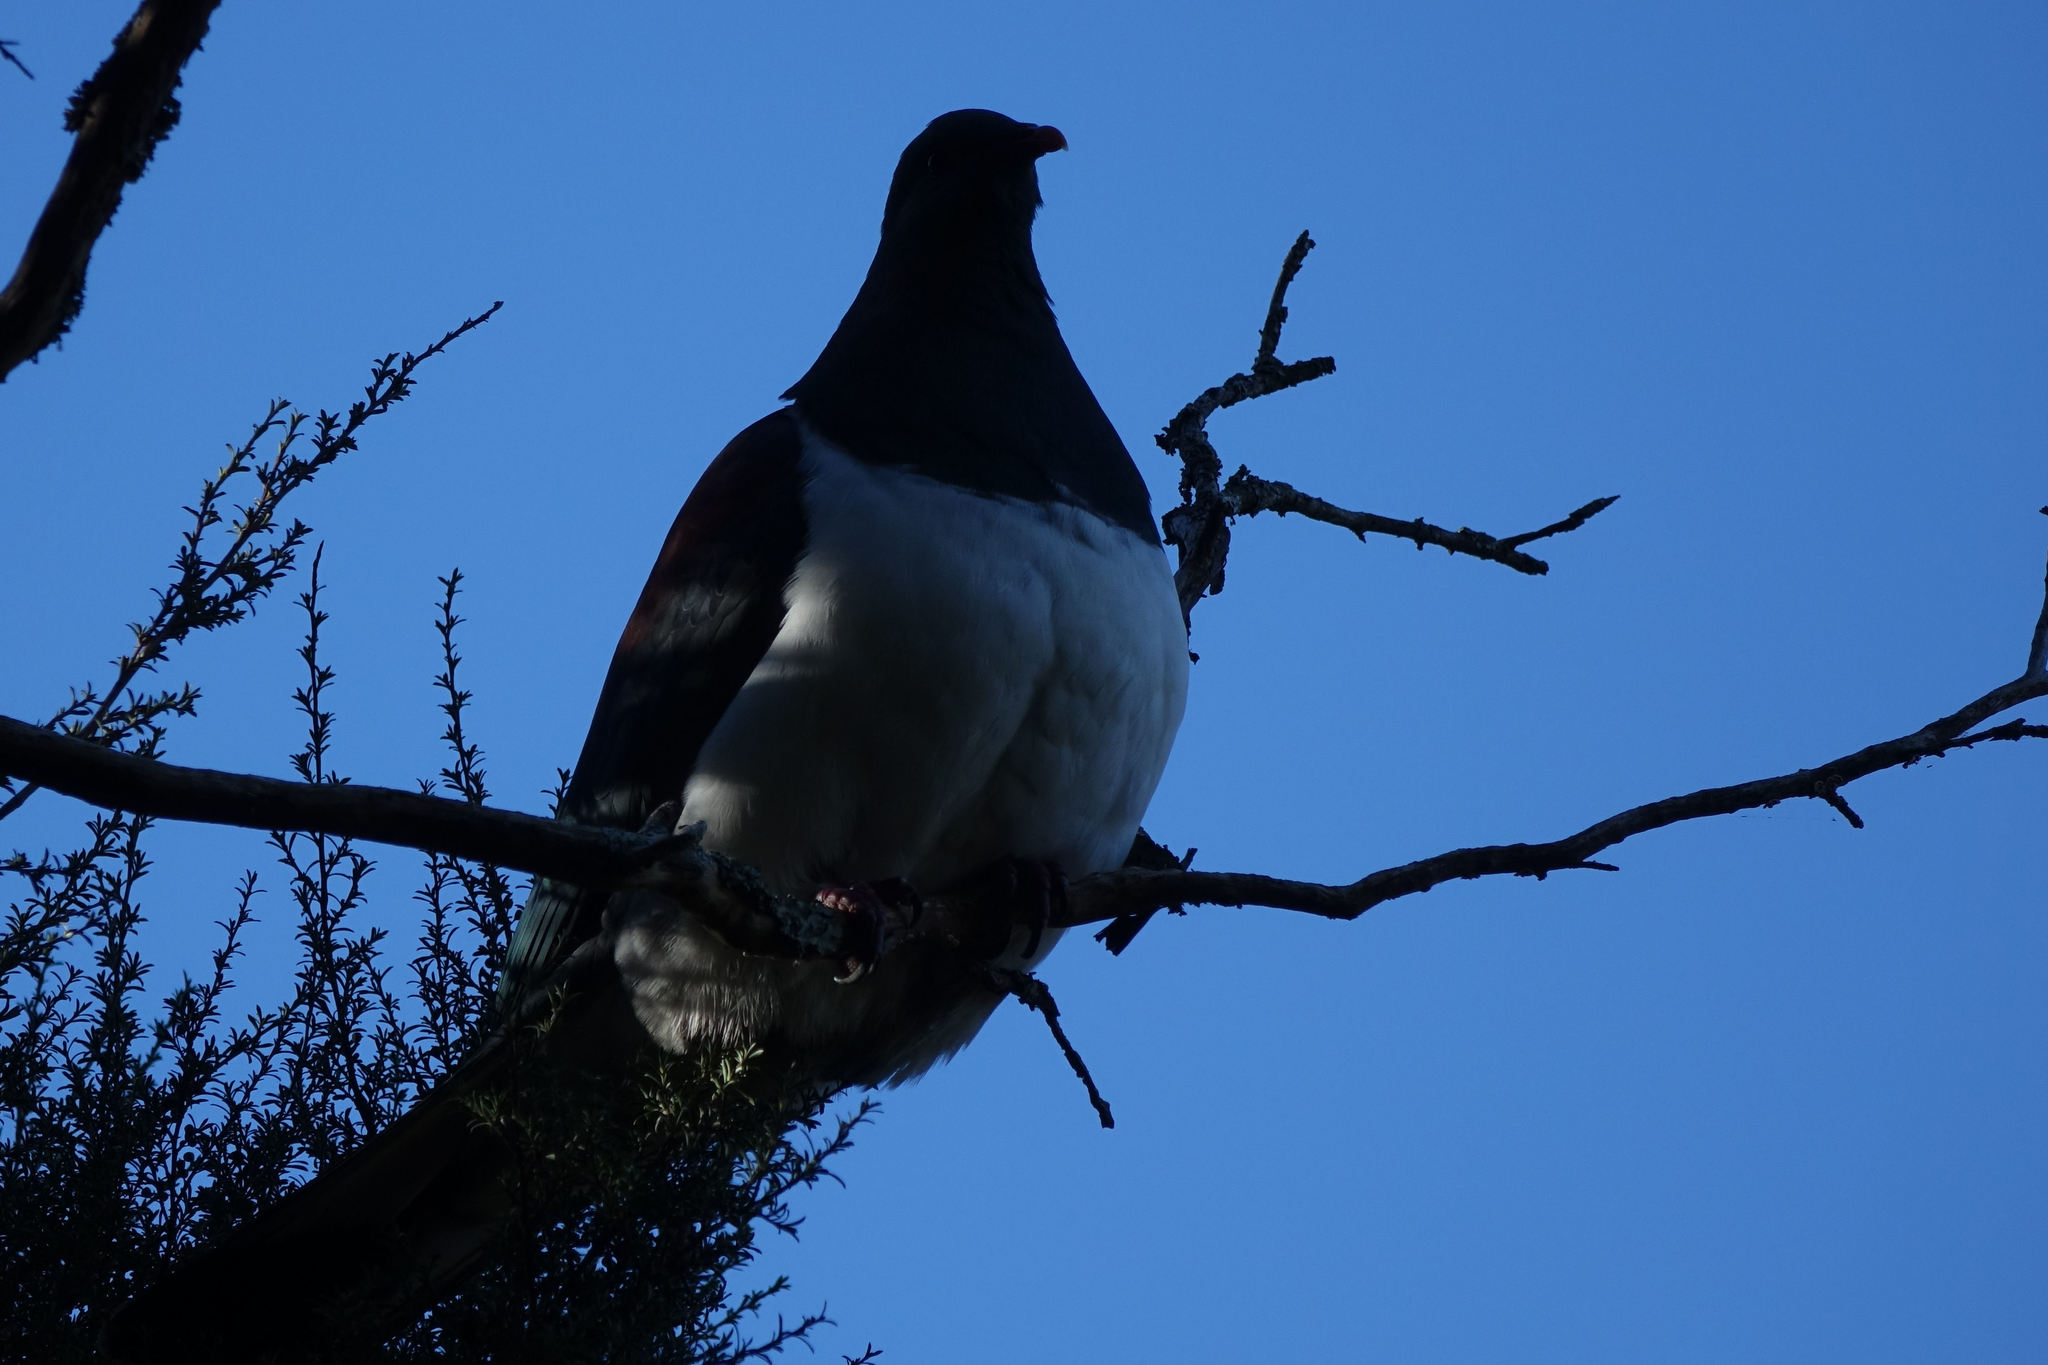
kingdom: Animalia
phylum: Chordata
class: Aves
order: Columbiformes
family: Columbidae
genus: Hemiphaga
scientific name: Hemiphaga novaeseelandiae
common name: New zealand pigeon
